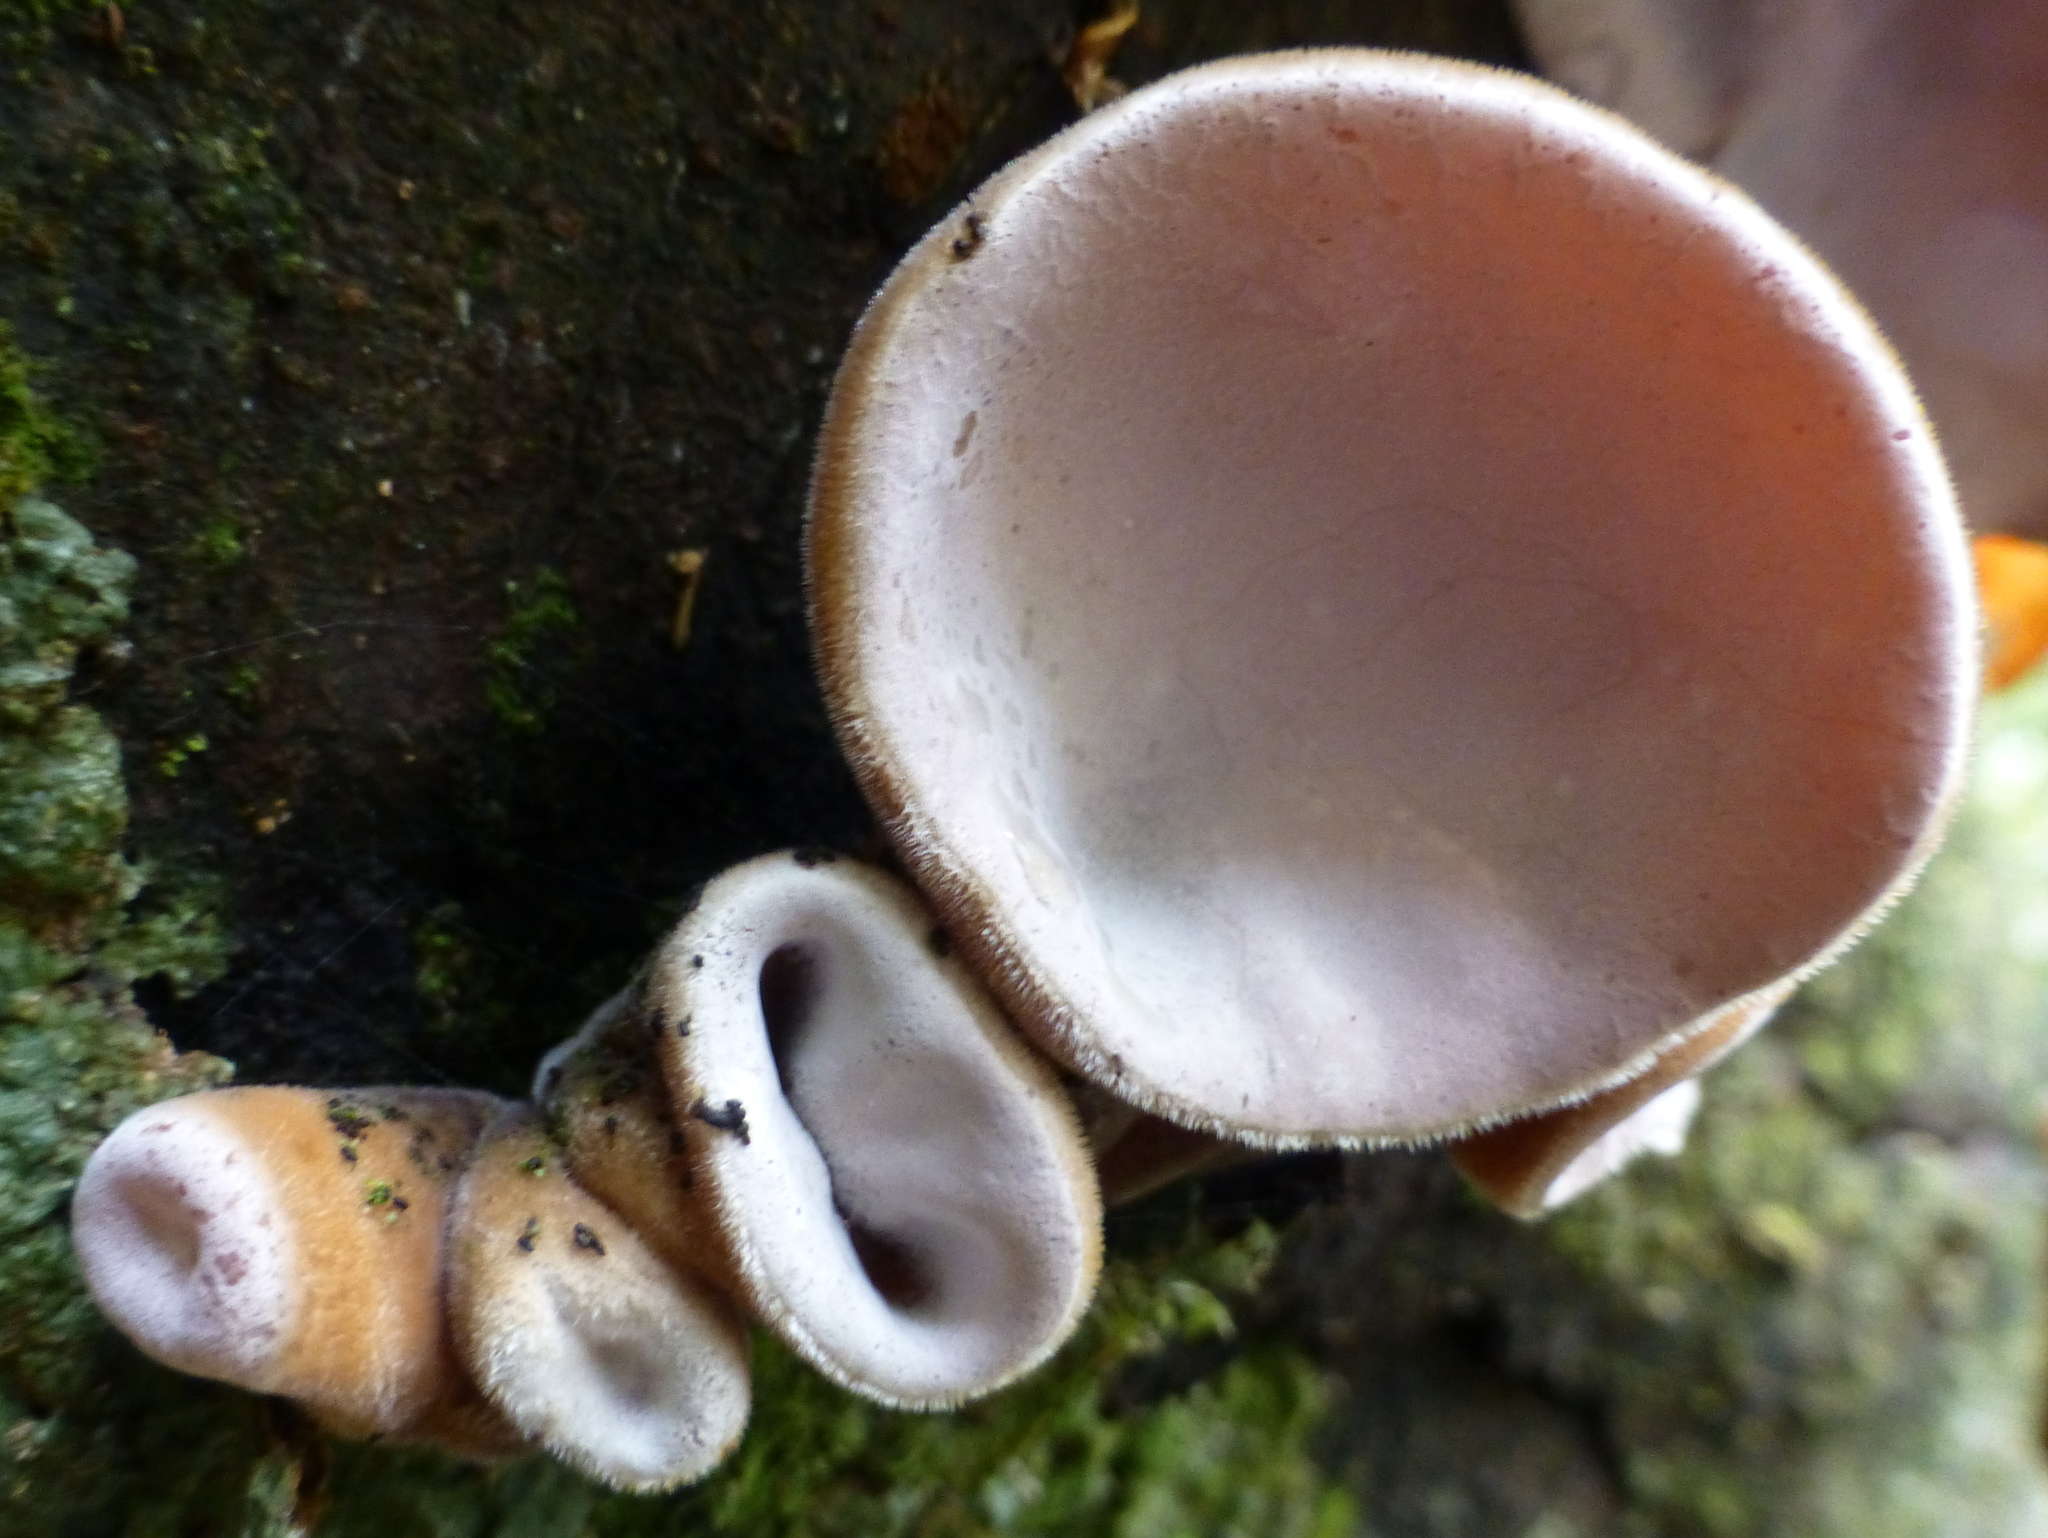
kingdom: Fungi
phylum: Basidiomycota
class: Agaricomycetes
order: Auriculariales
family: Auriculariaceae
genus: Auricularia
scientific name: Auricularia cornea
